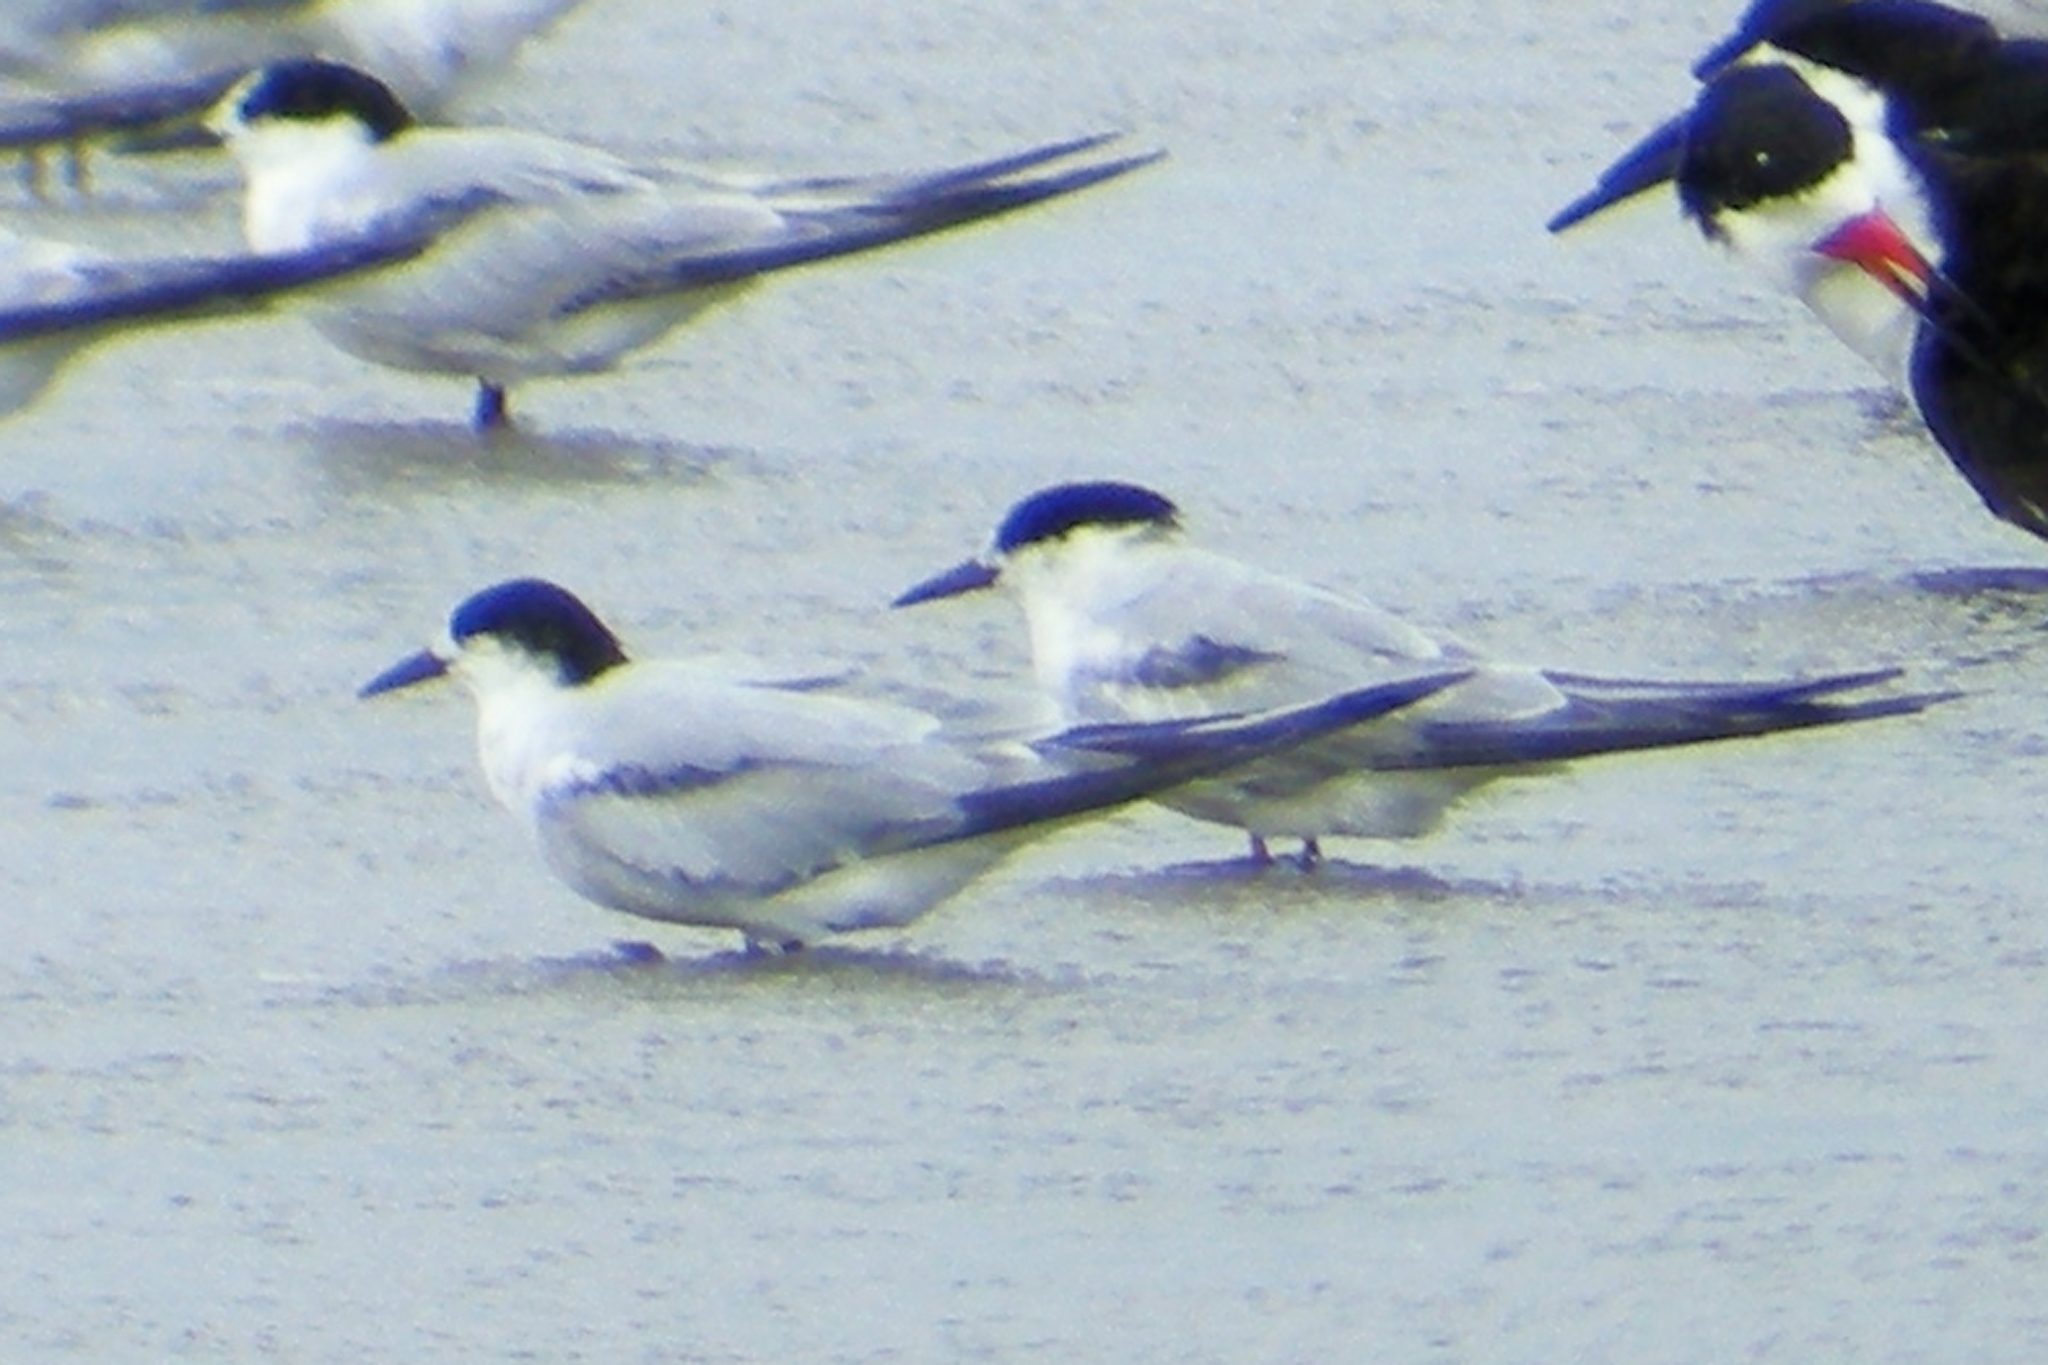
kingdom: Animalia
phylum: Chordata
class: Aves
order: Charadriiformes
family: Laridae
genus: Sterna
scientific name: Sterna hirundo
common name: Common tern
